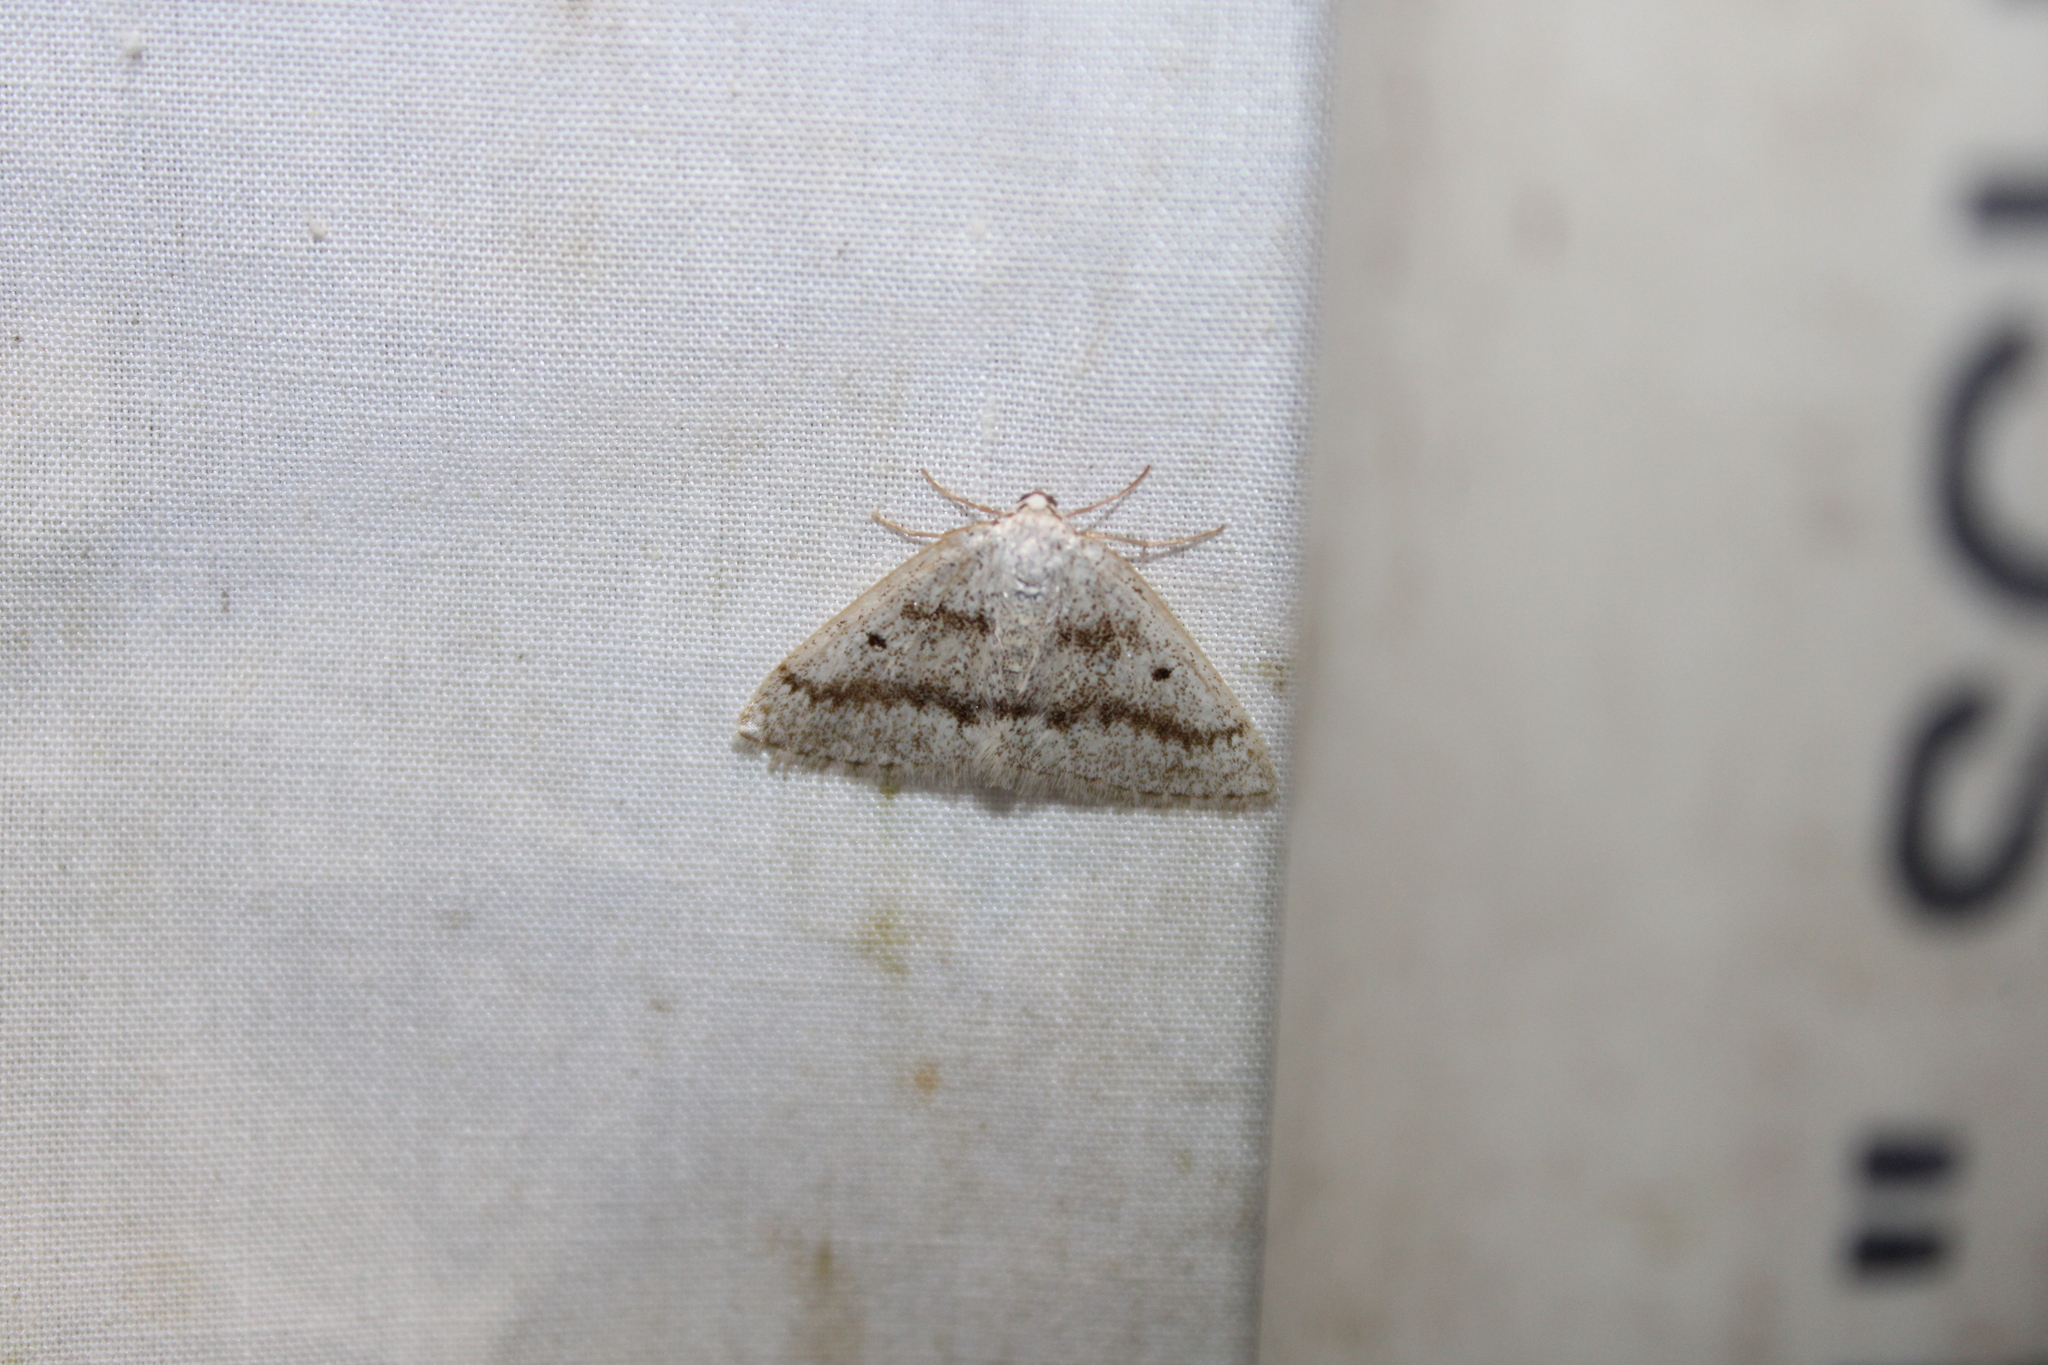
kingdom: Animalia
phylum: Arthropoda
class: Insecta
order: Lepidoptera
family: Geometridae
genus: Lomographa
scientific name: Lomographa glomeraria
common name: Gray spring moth
